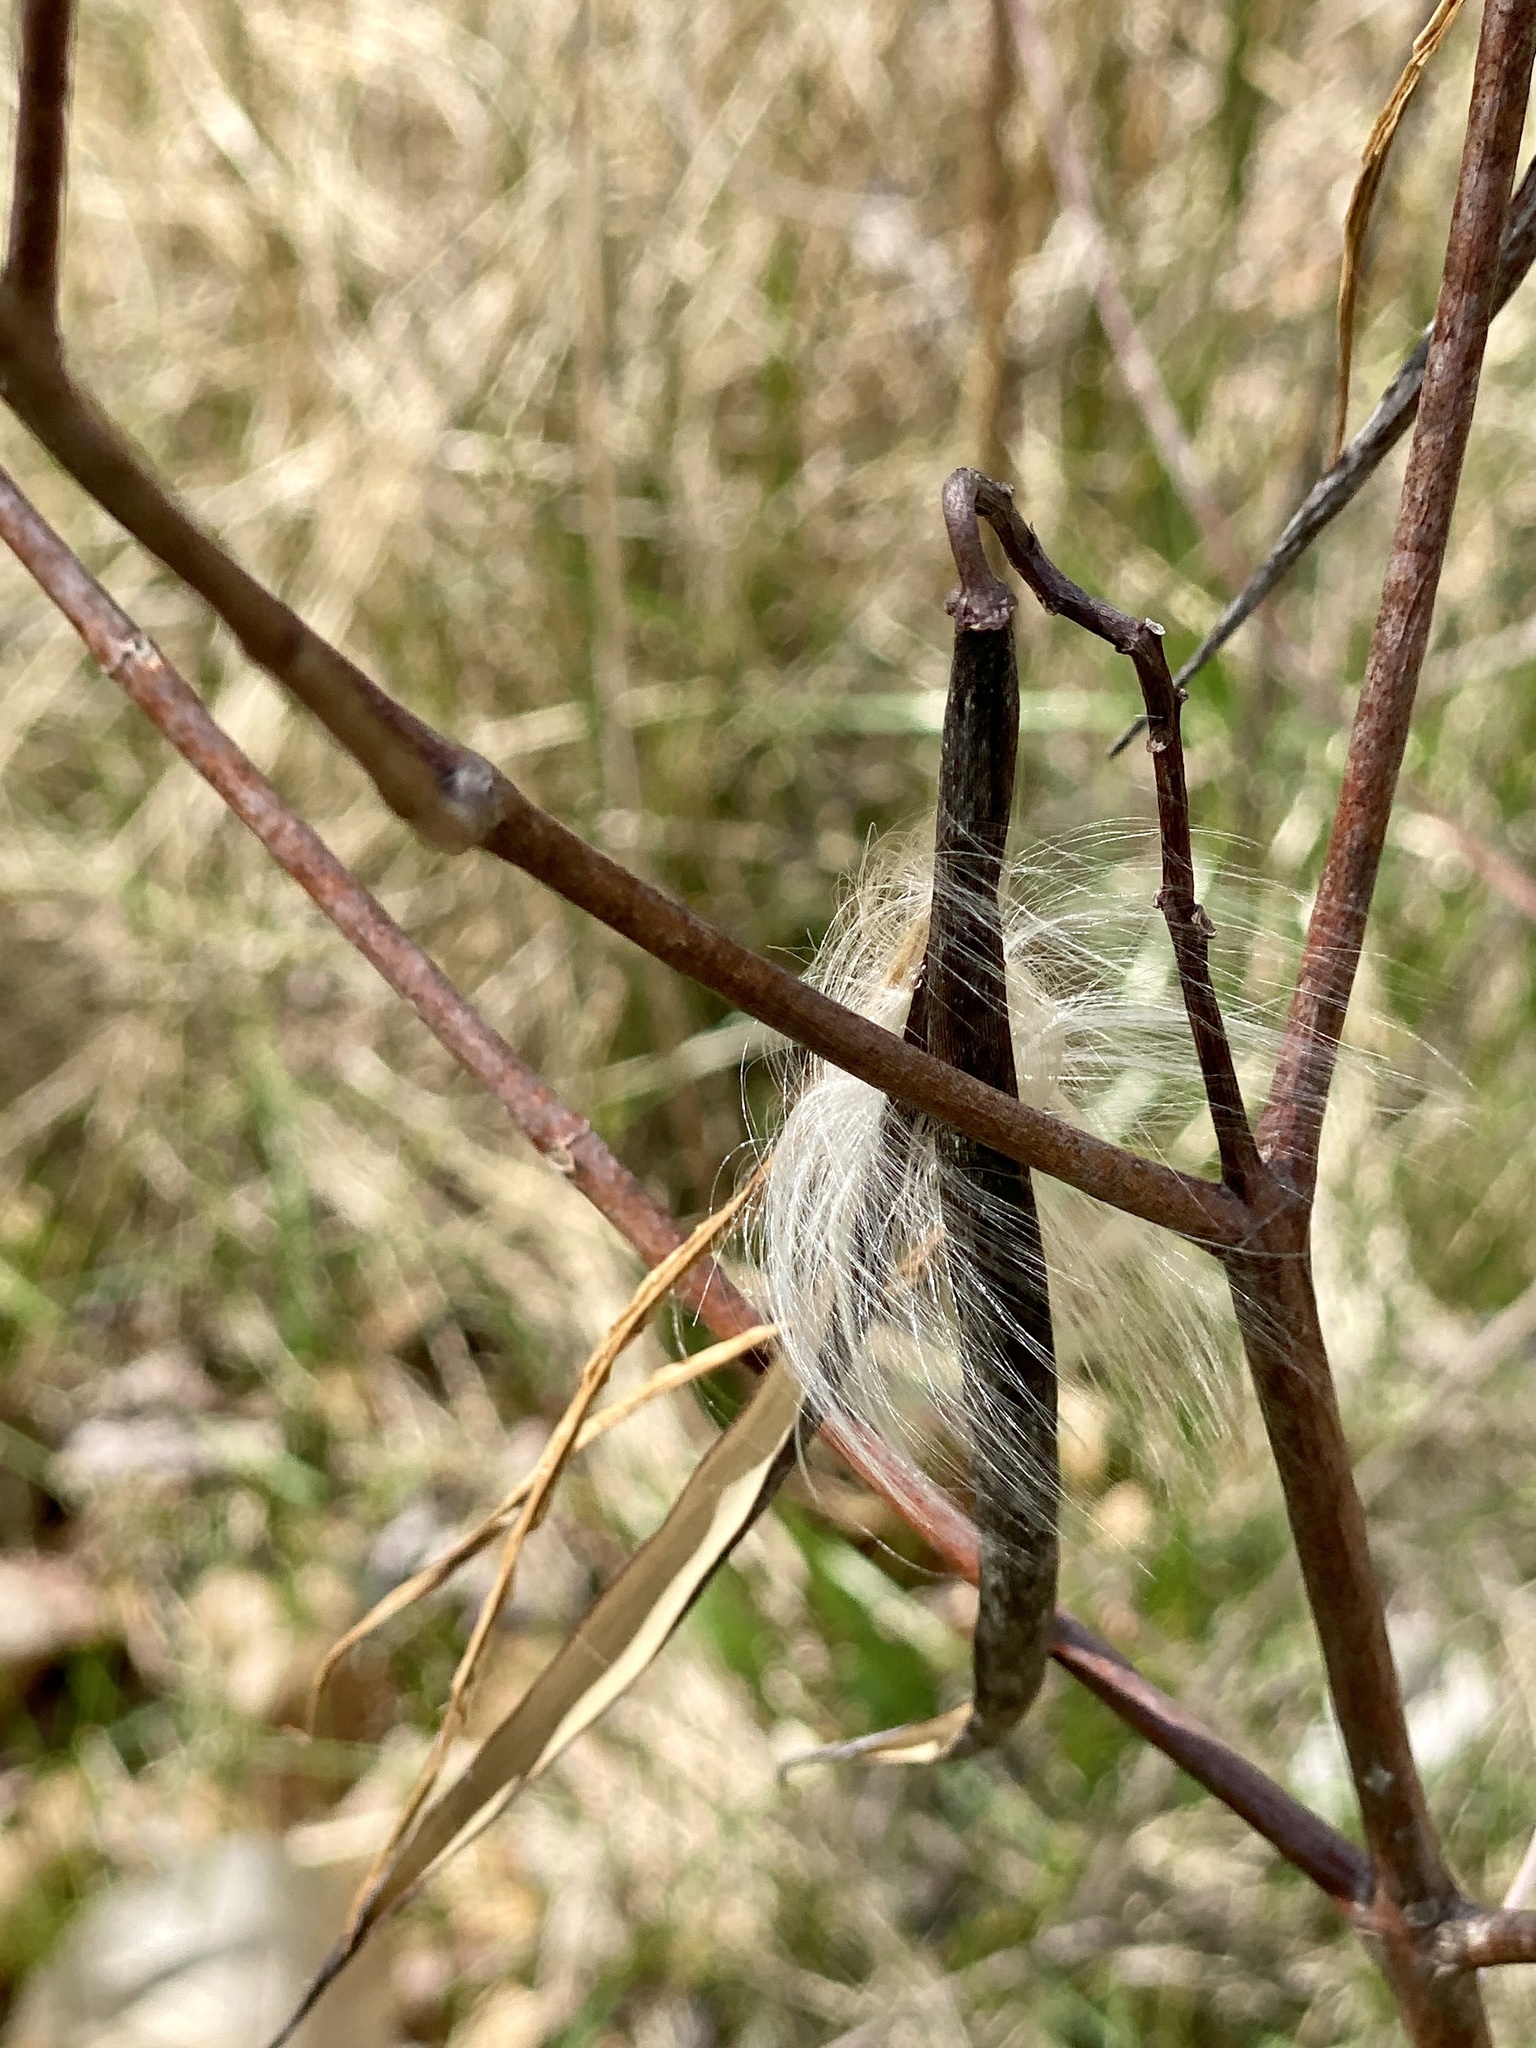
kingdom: Plantae
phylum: Tracheophyta
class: Magnoliopsida
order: Gentianales
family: Apocynaceae
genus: Apocynum
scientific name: Apocynum cannabinum
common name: Hemp dogbane
